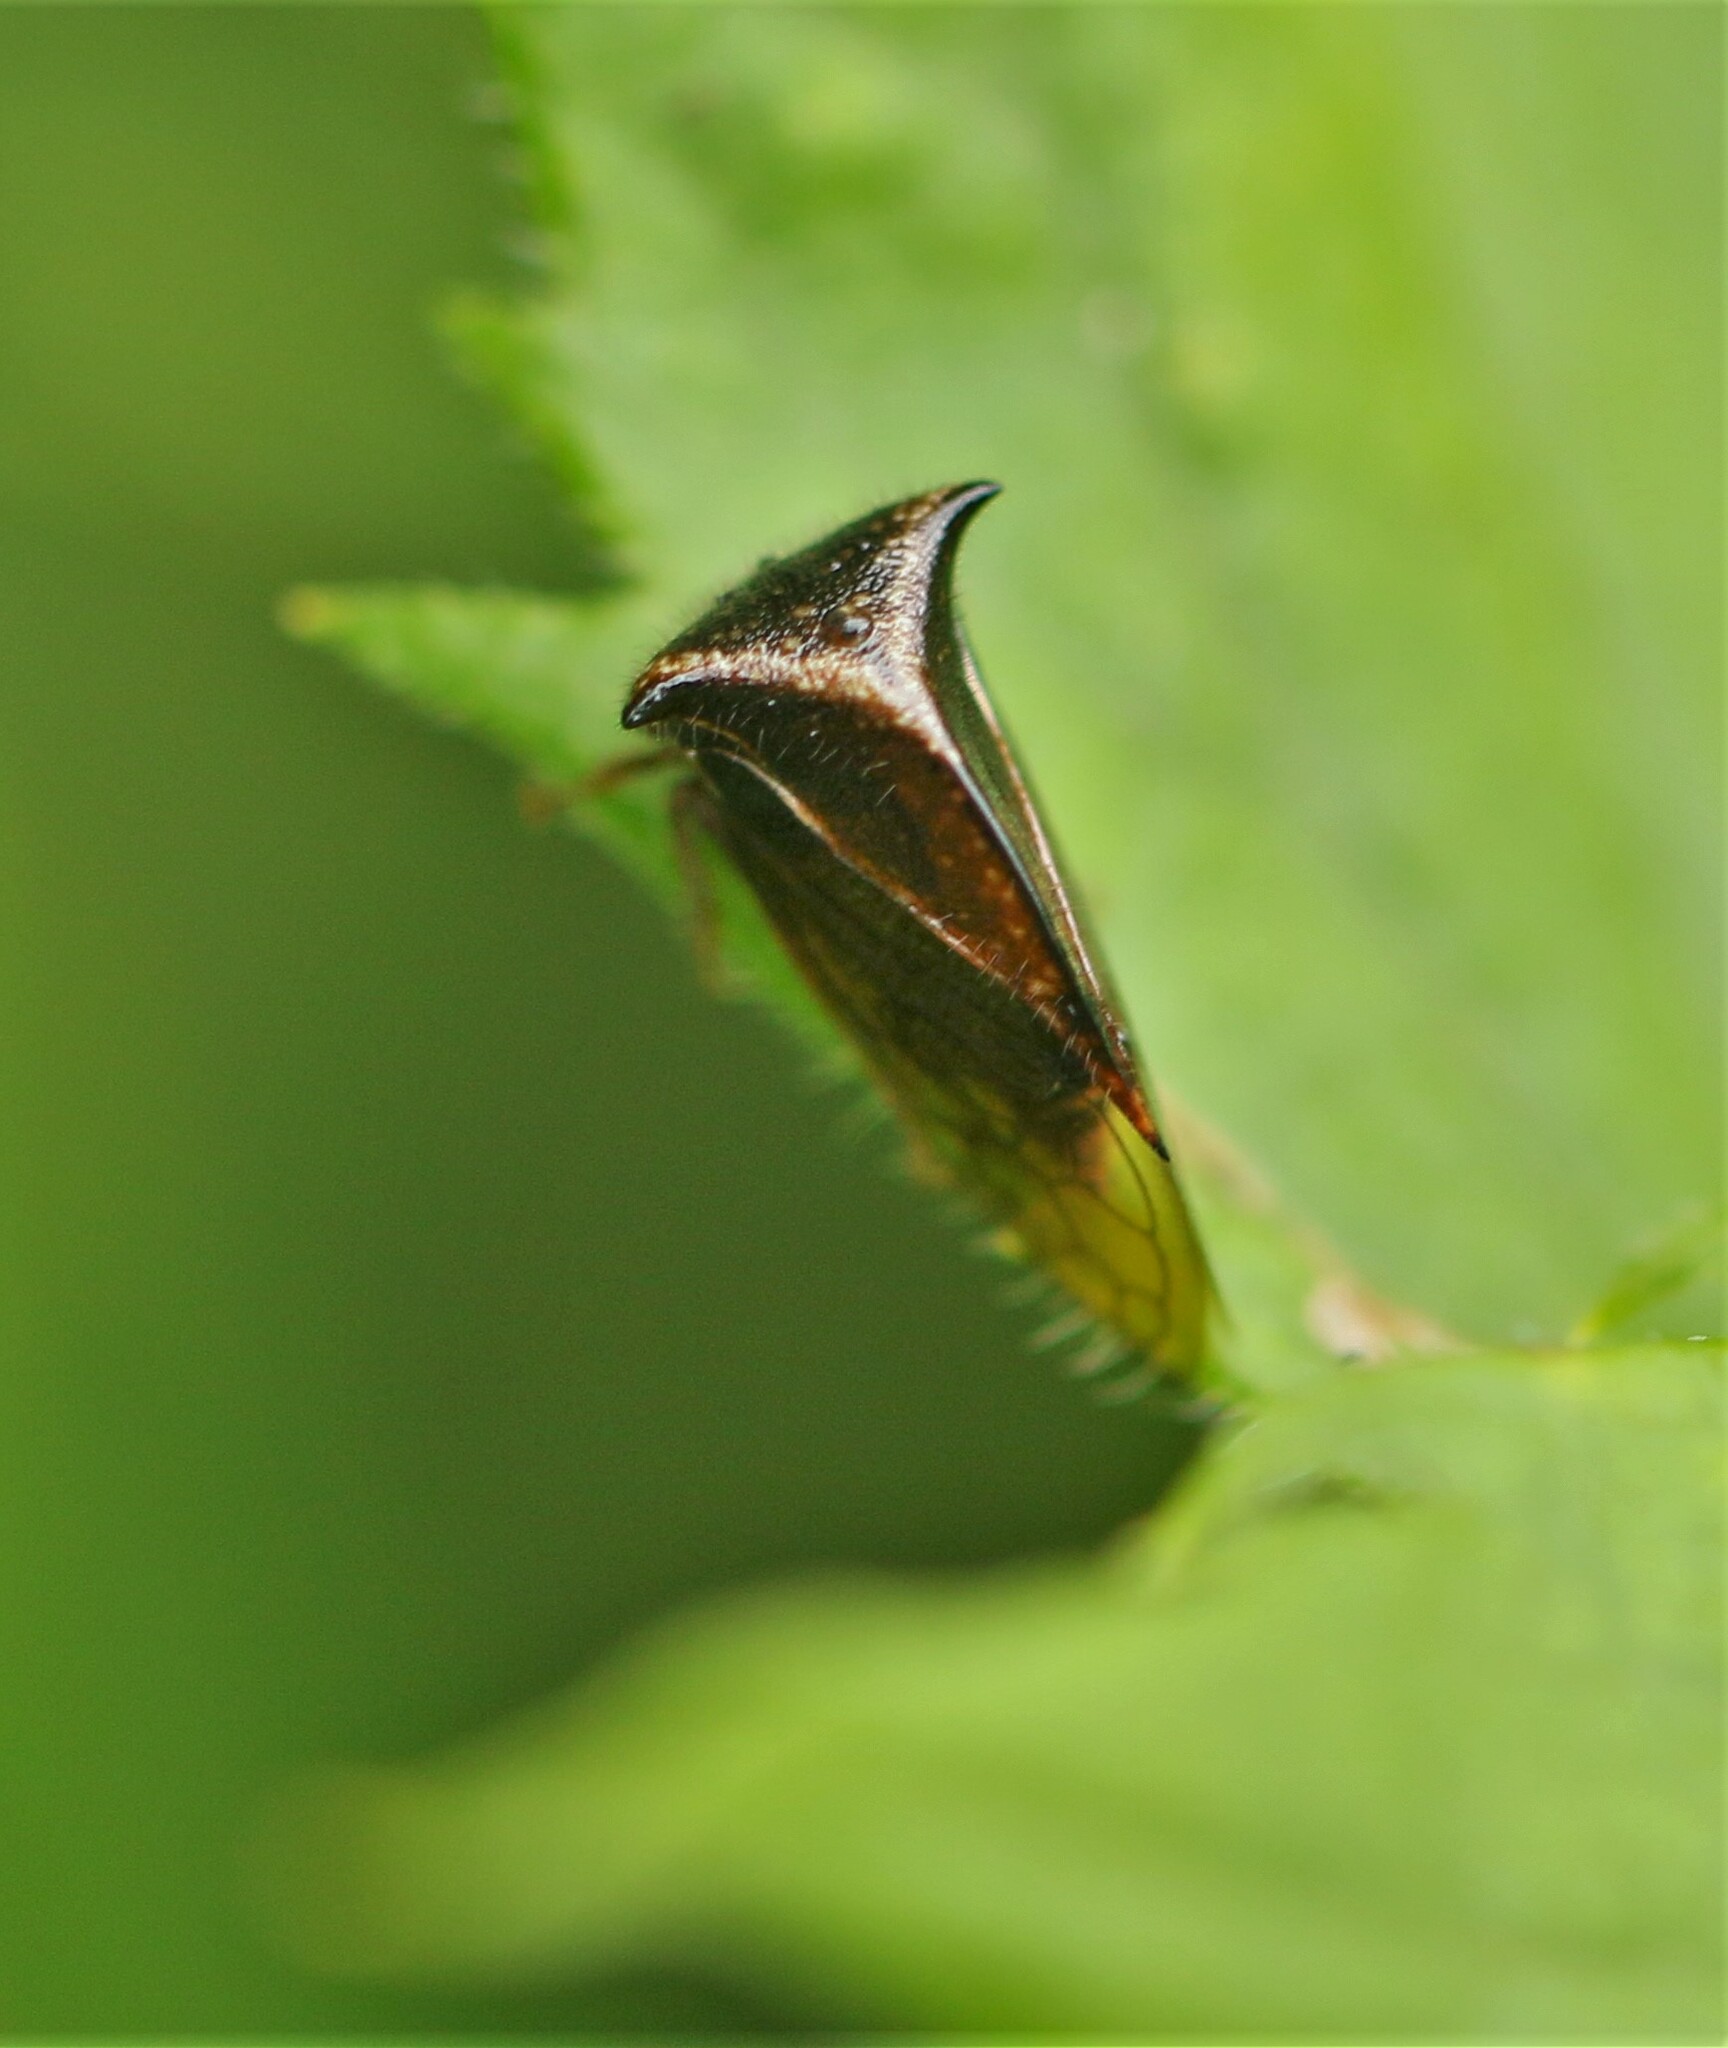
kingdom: Animalia
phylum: Arthropoda
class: Insecta
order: Hemiptera
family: Membracidae
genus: Stictocephala
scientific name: Stictocephala basalis
